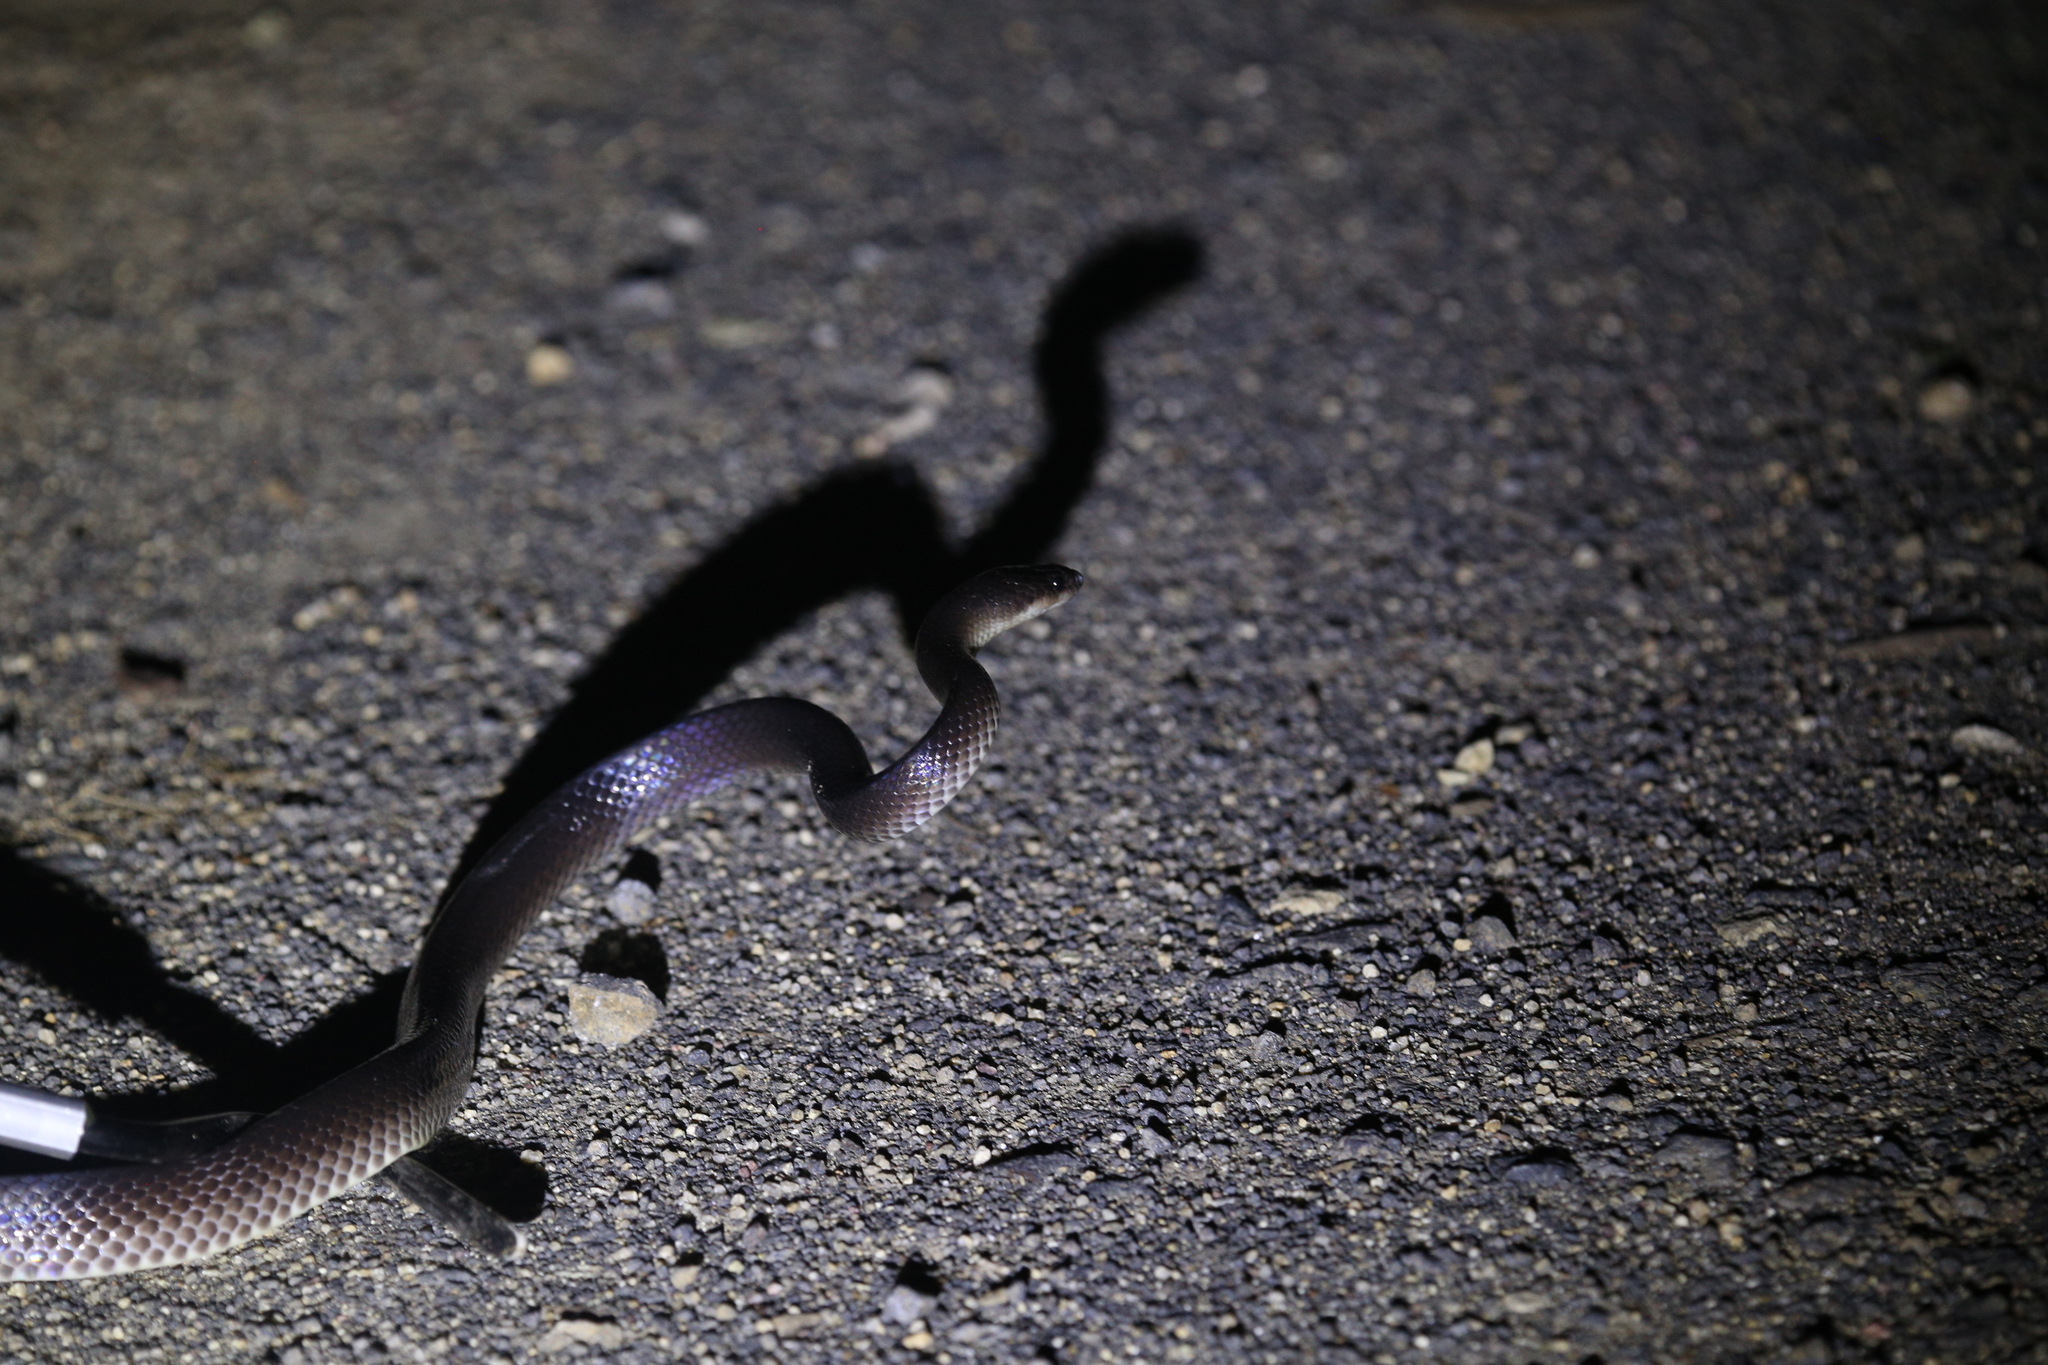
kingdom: Animalia
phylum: Chordata
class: Squamata
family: Colubridae
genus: Stegonotus
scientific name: Stegonotus australis
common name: Australian groundsnake
